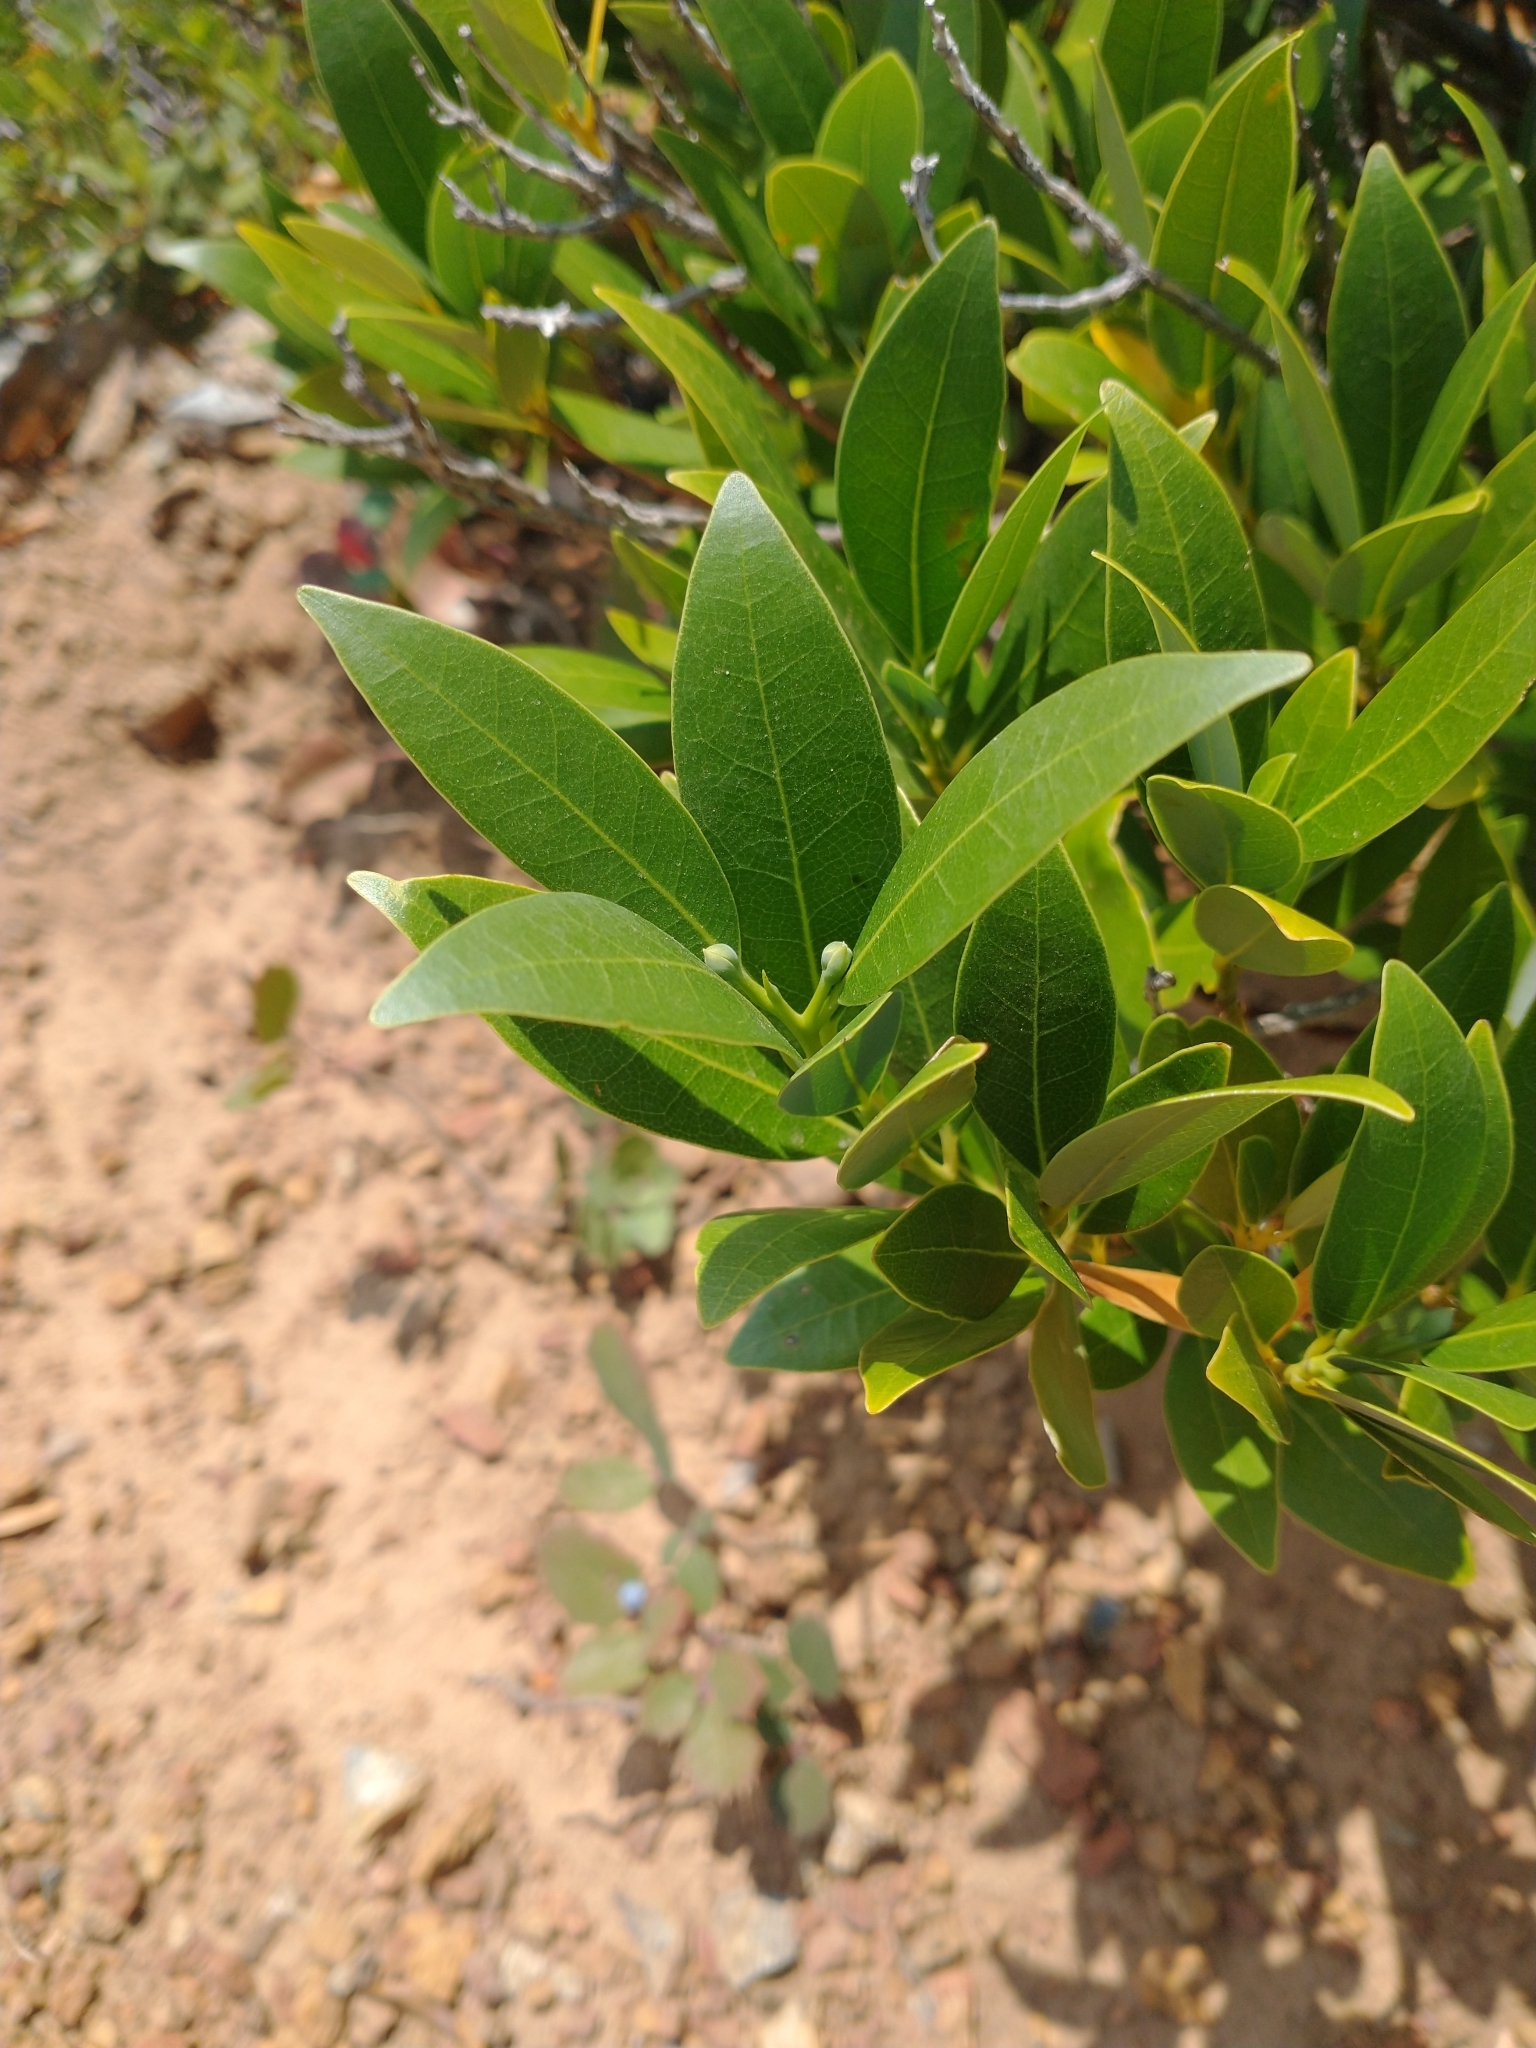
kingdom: Plantae
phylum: Tracheophyta
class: Magnoliopsida
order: Laurales
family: Lauraceae
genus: Umbellularia
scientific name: Umbellularia californica
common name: California bay
